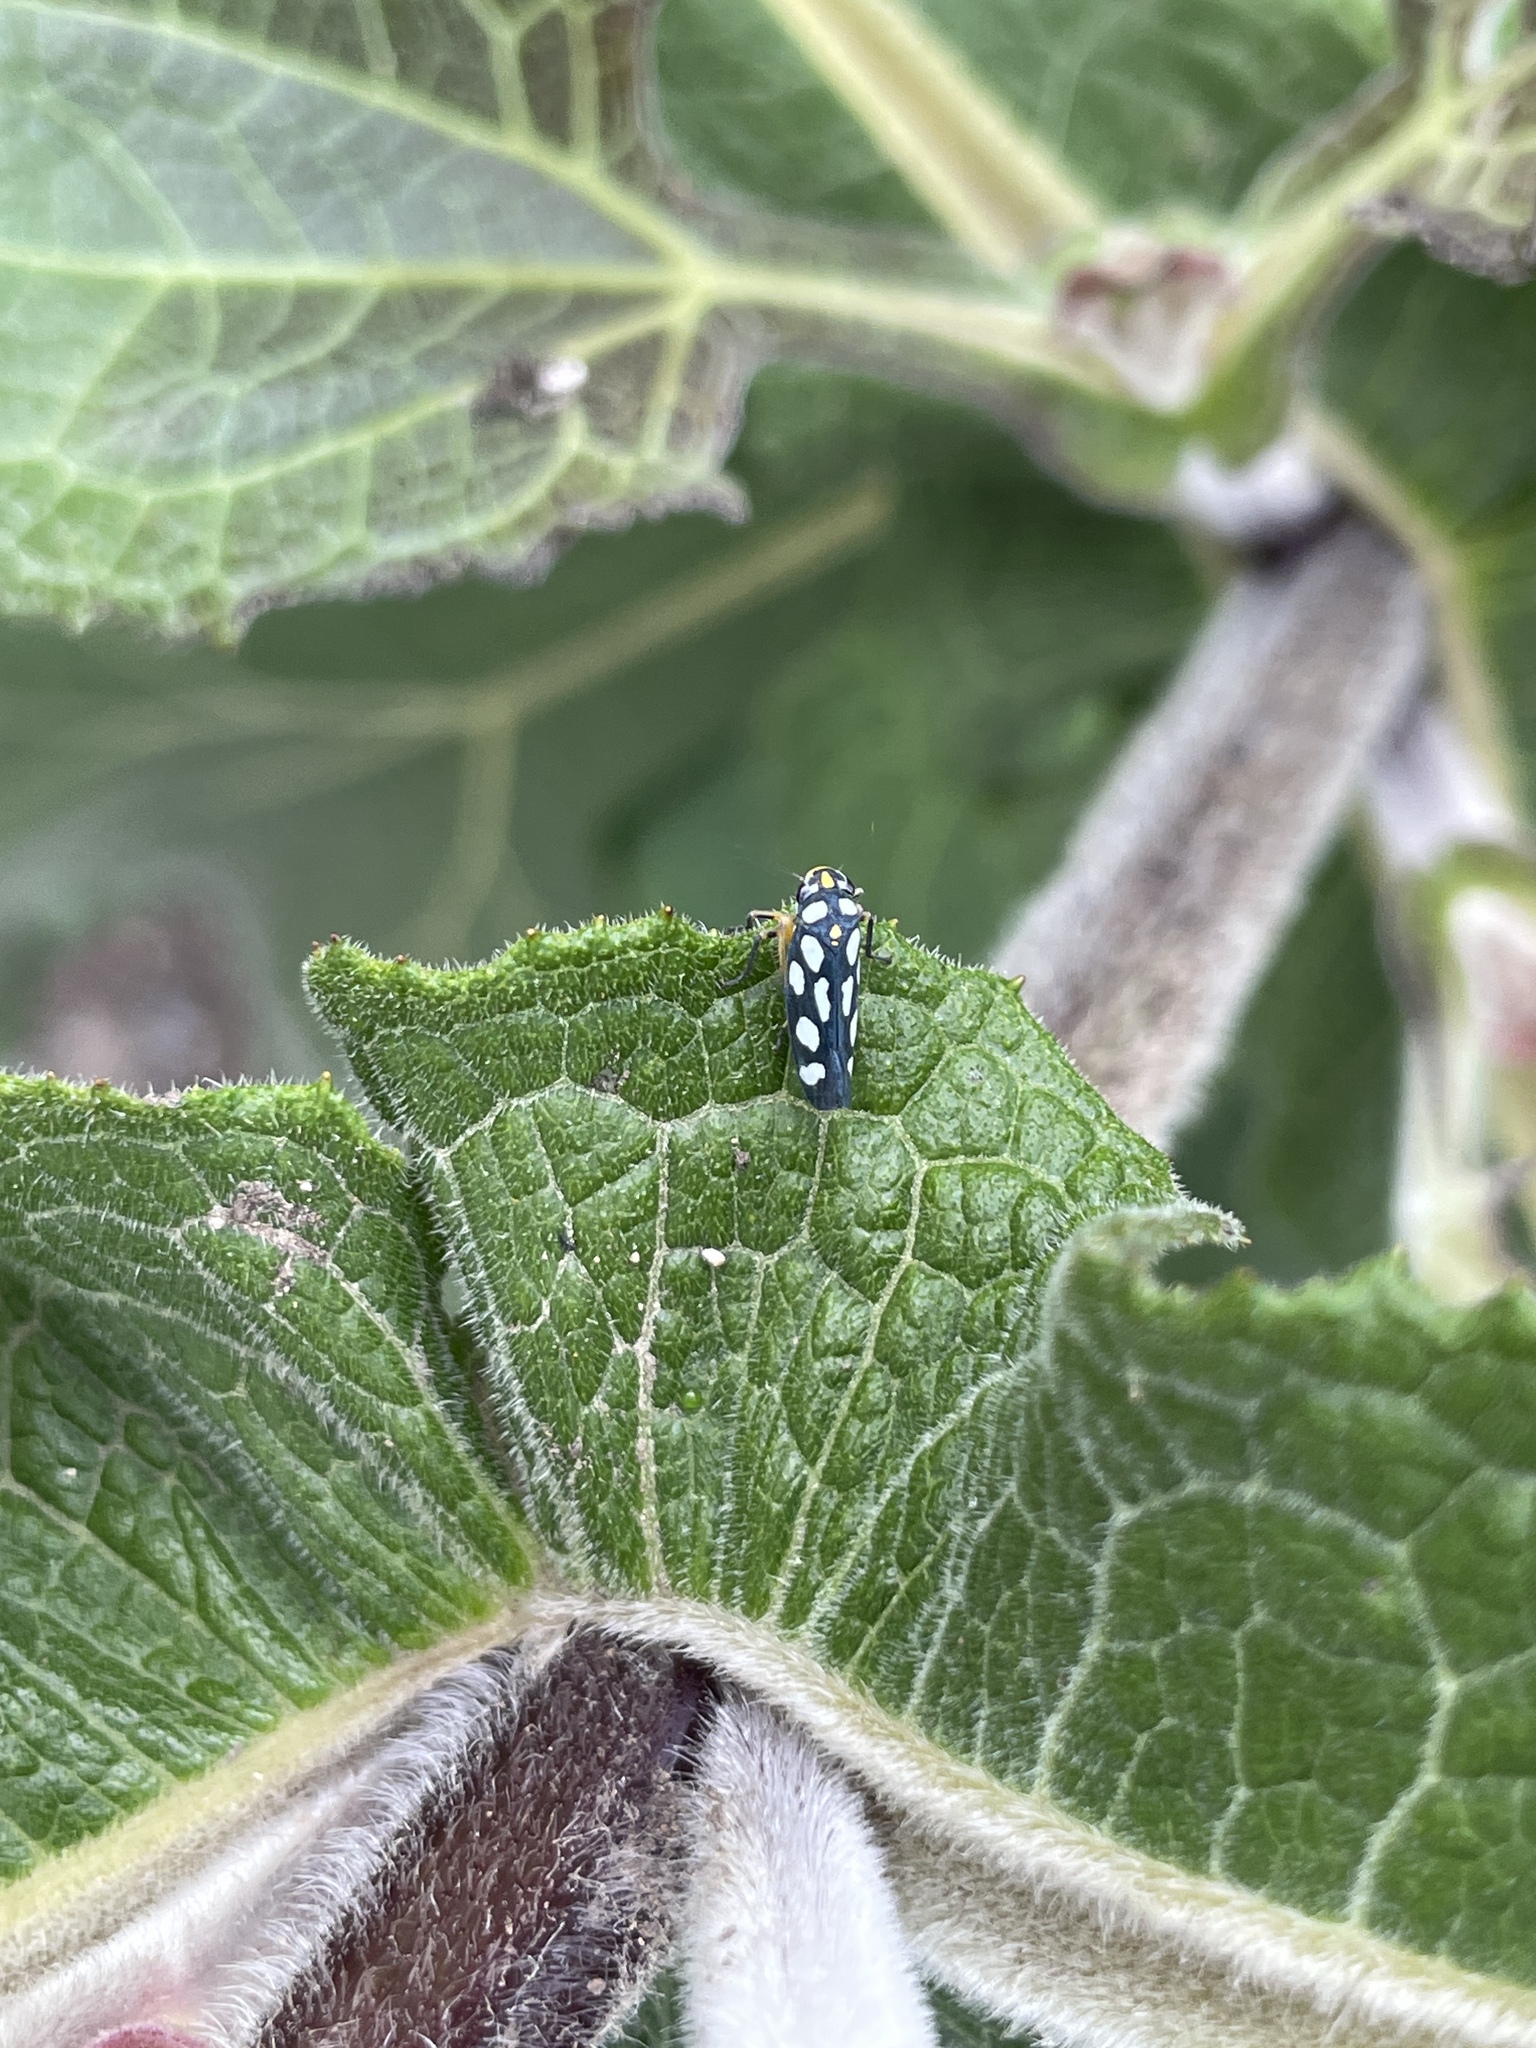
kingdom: Animalia
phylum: Arthropoda
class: Insecta
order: Hemiptera
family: Cicadellidae
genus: Stehlikiana
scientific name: Stehlikiana crassa
